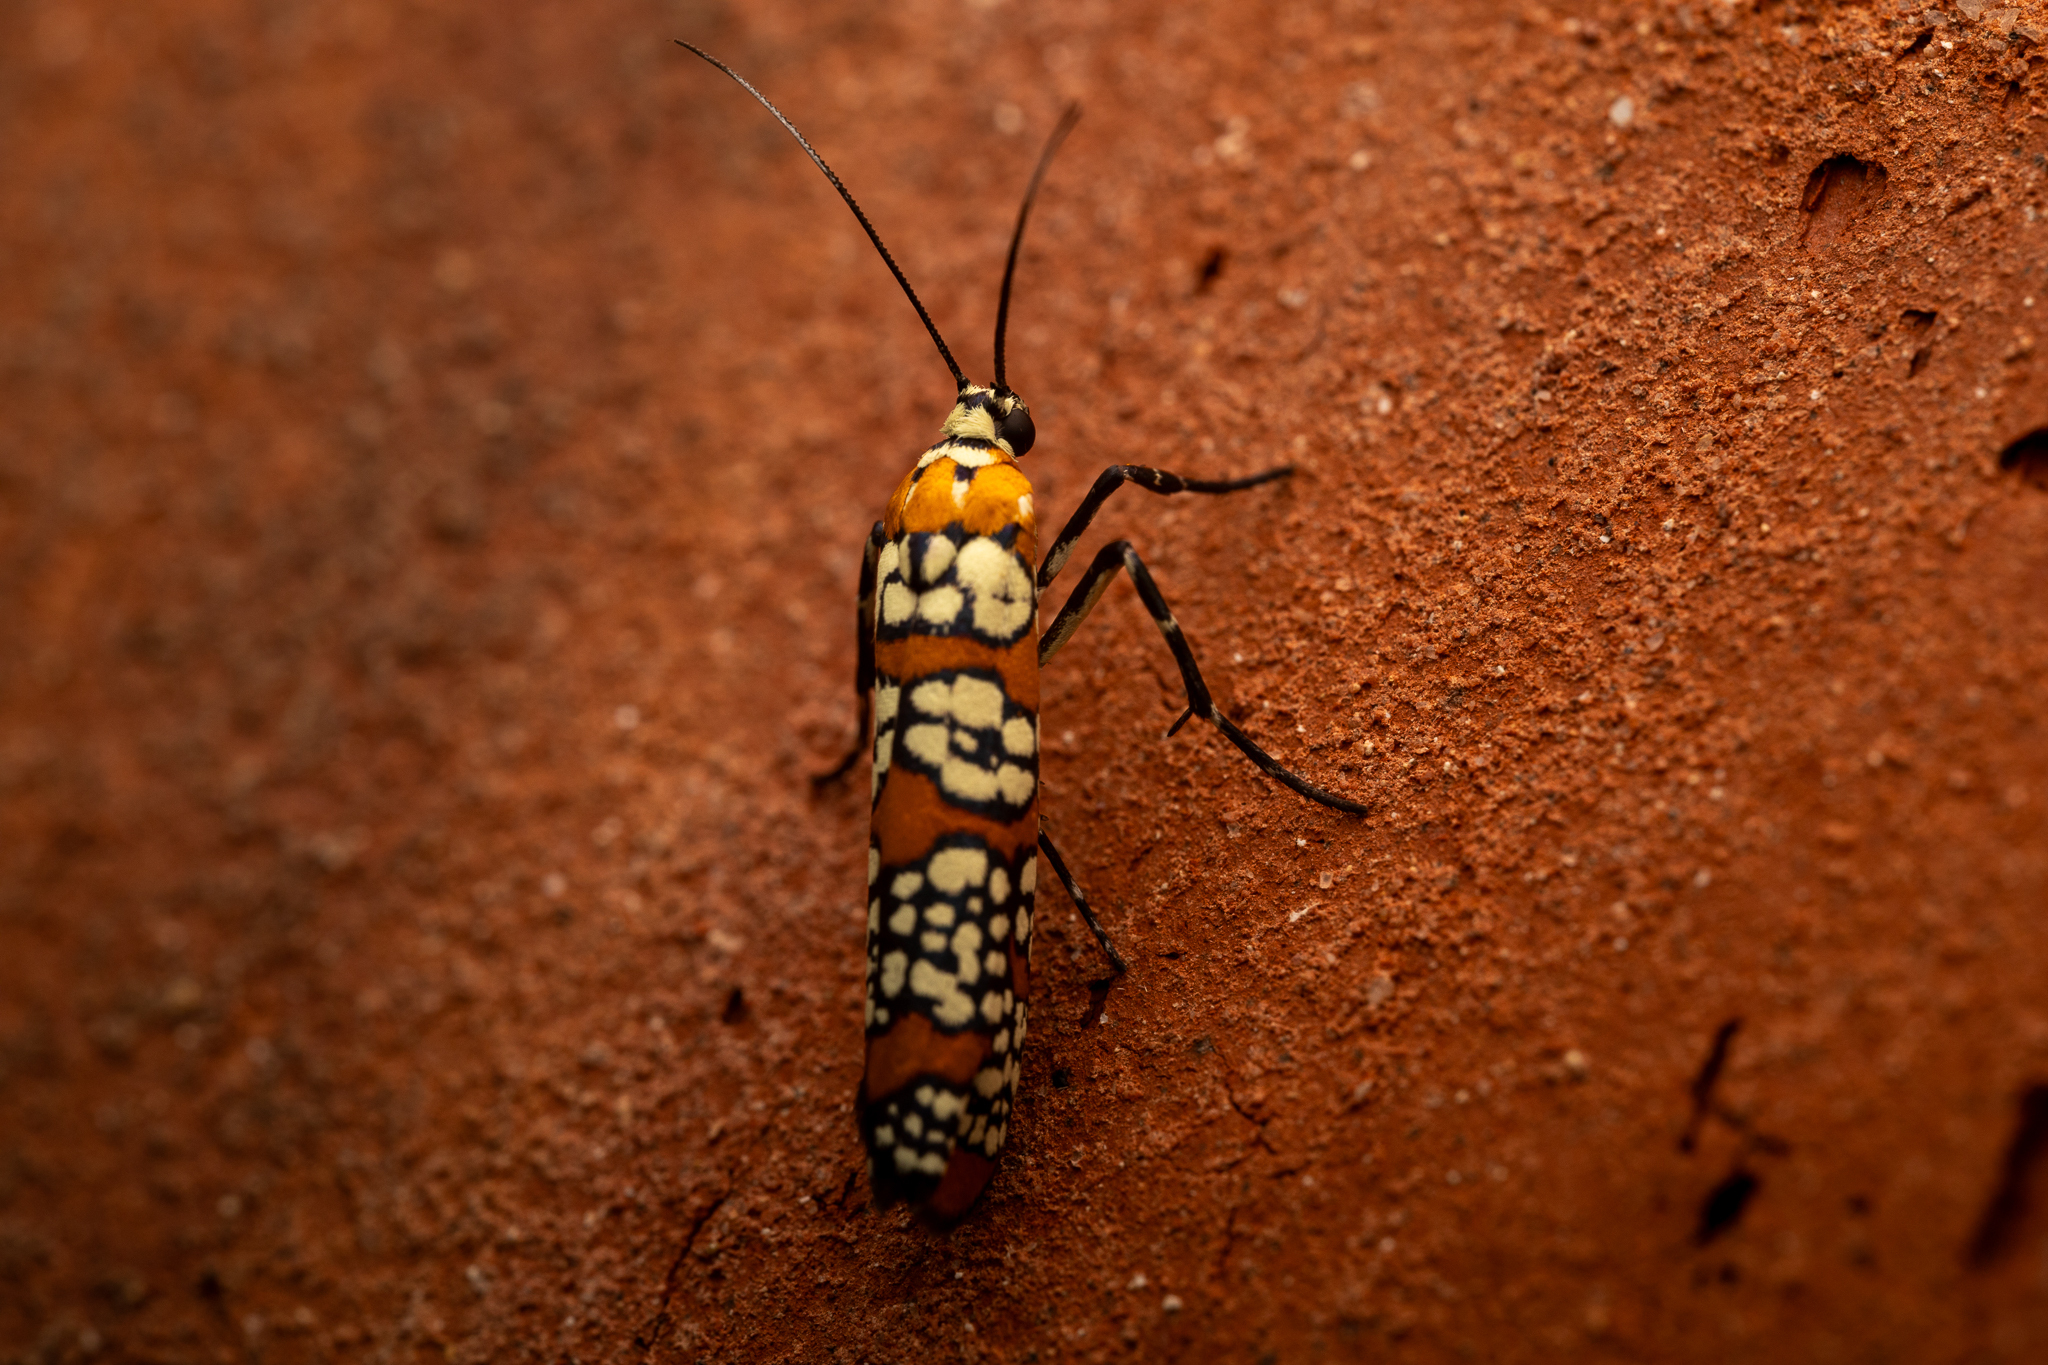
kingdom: Animalia
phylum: Arthropoda
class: Insecta
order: Lepidoptera
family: Attevidae
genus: Atteva
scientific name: Atteva punctella
